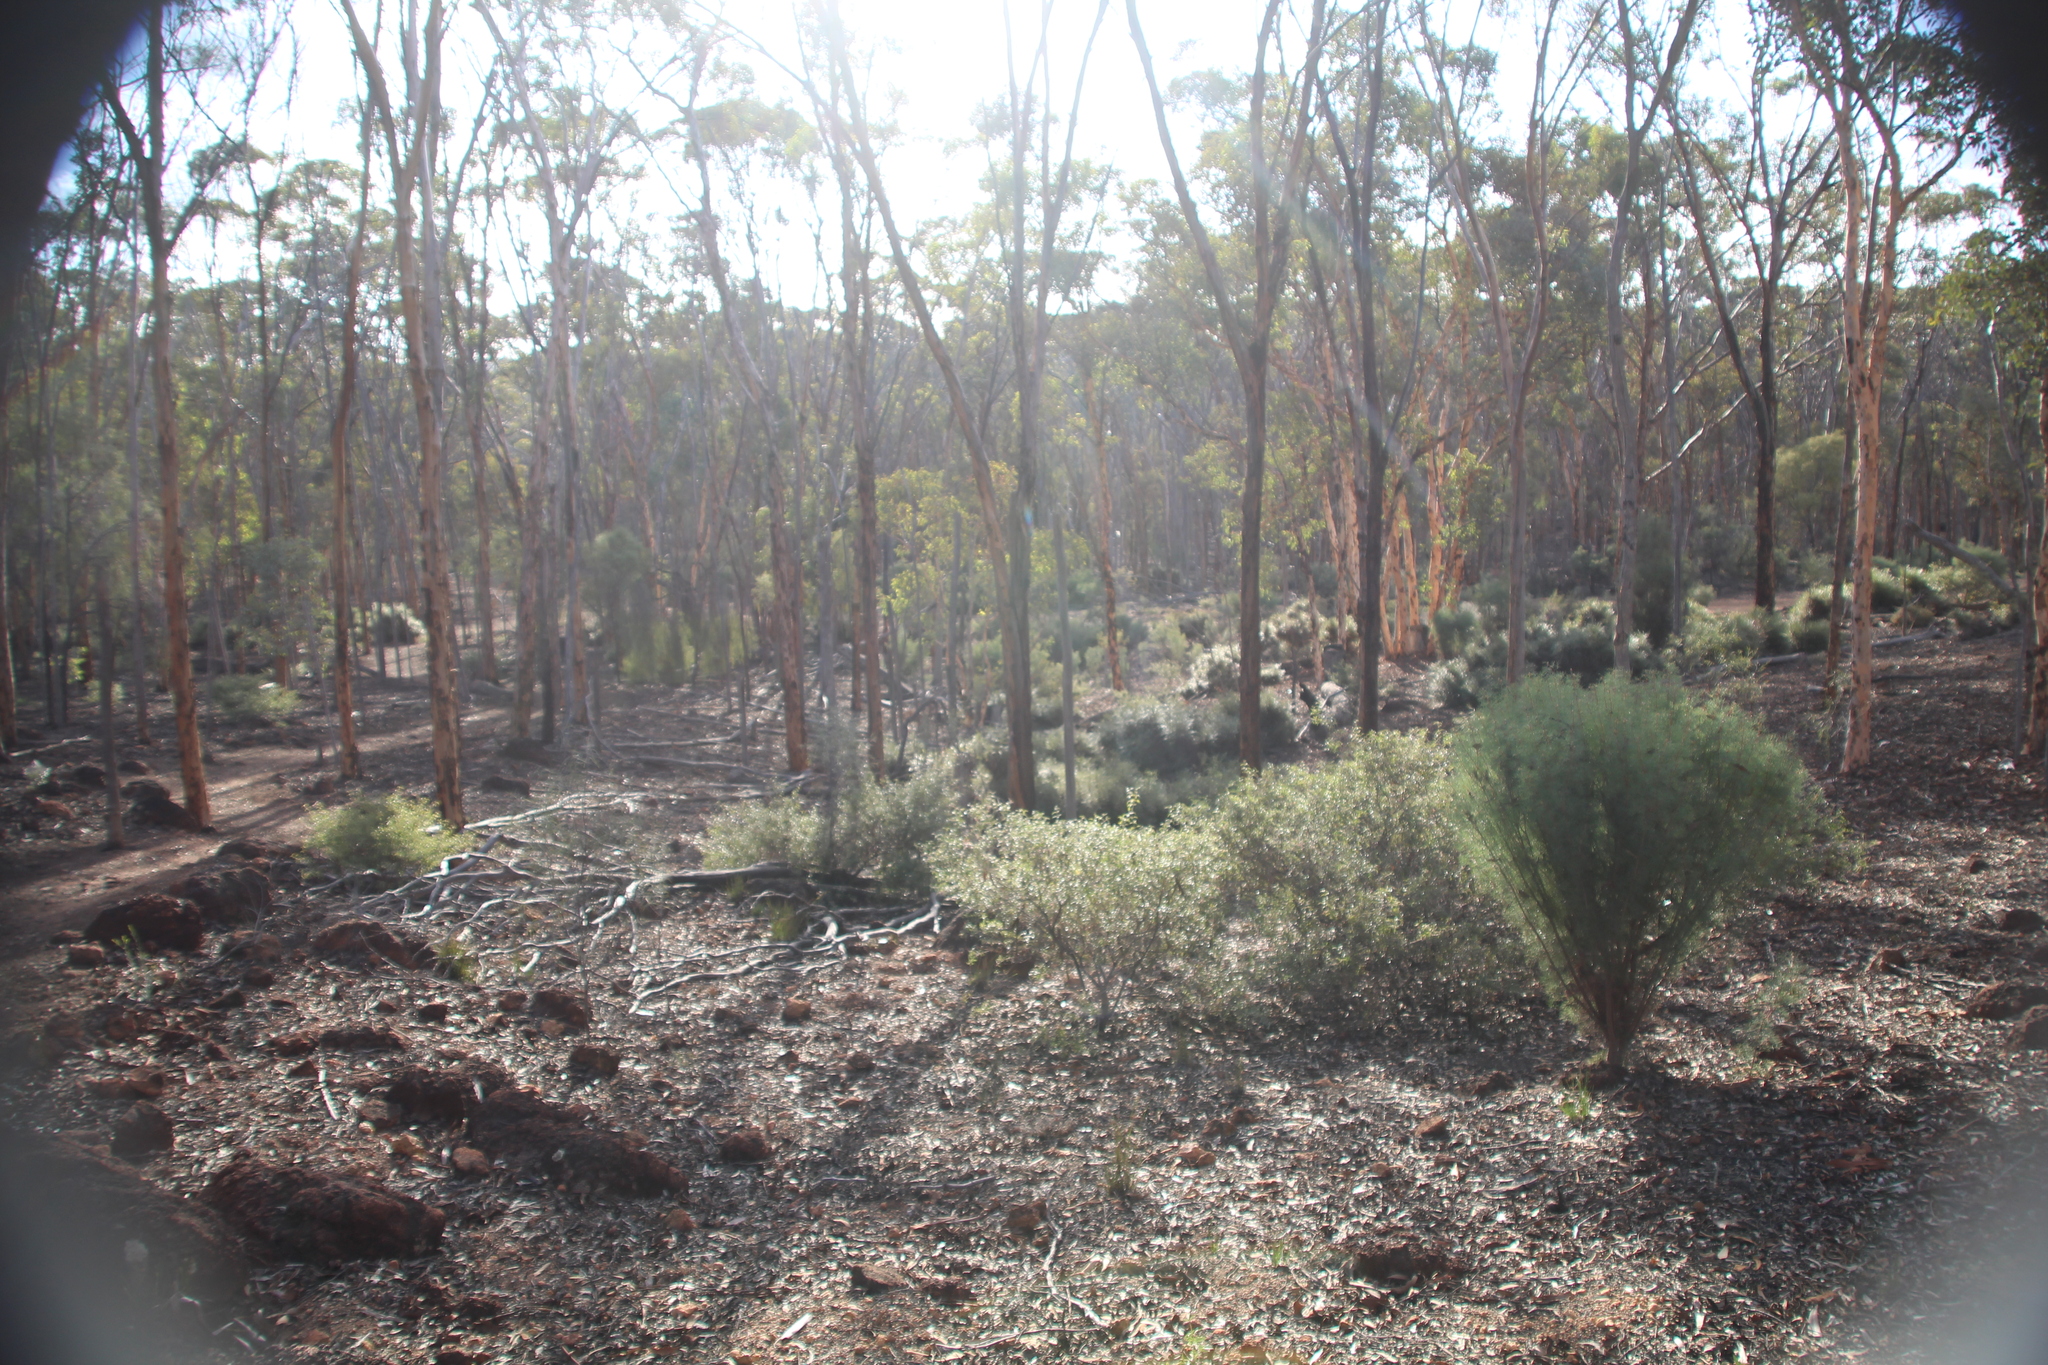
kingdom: Plantae
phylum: Tracheophyta
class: Magnoliopsida
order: Myrtales
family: Myrtaceae
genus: Eucalyptus
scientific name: Eucalyptus astringens
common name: Brown mallet
